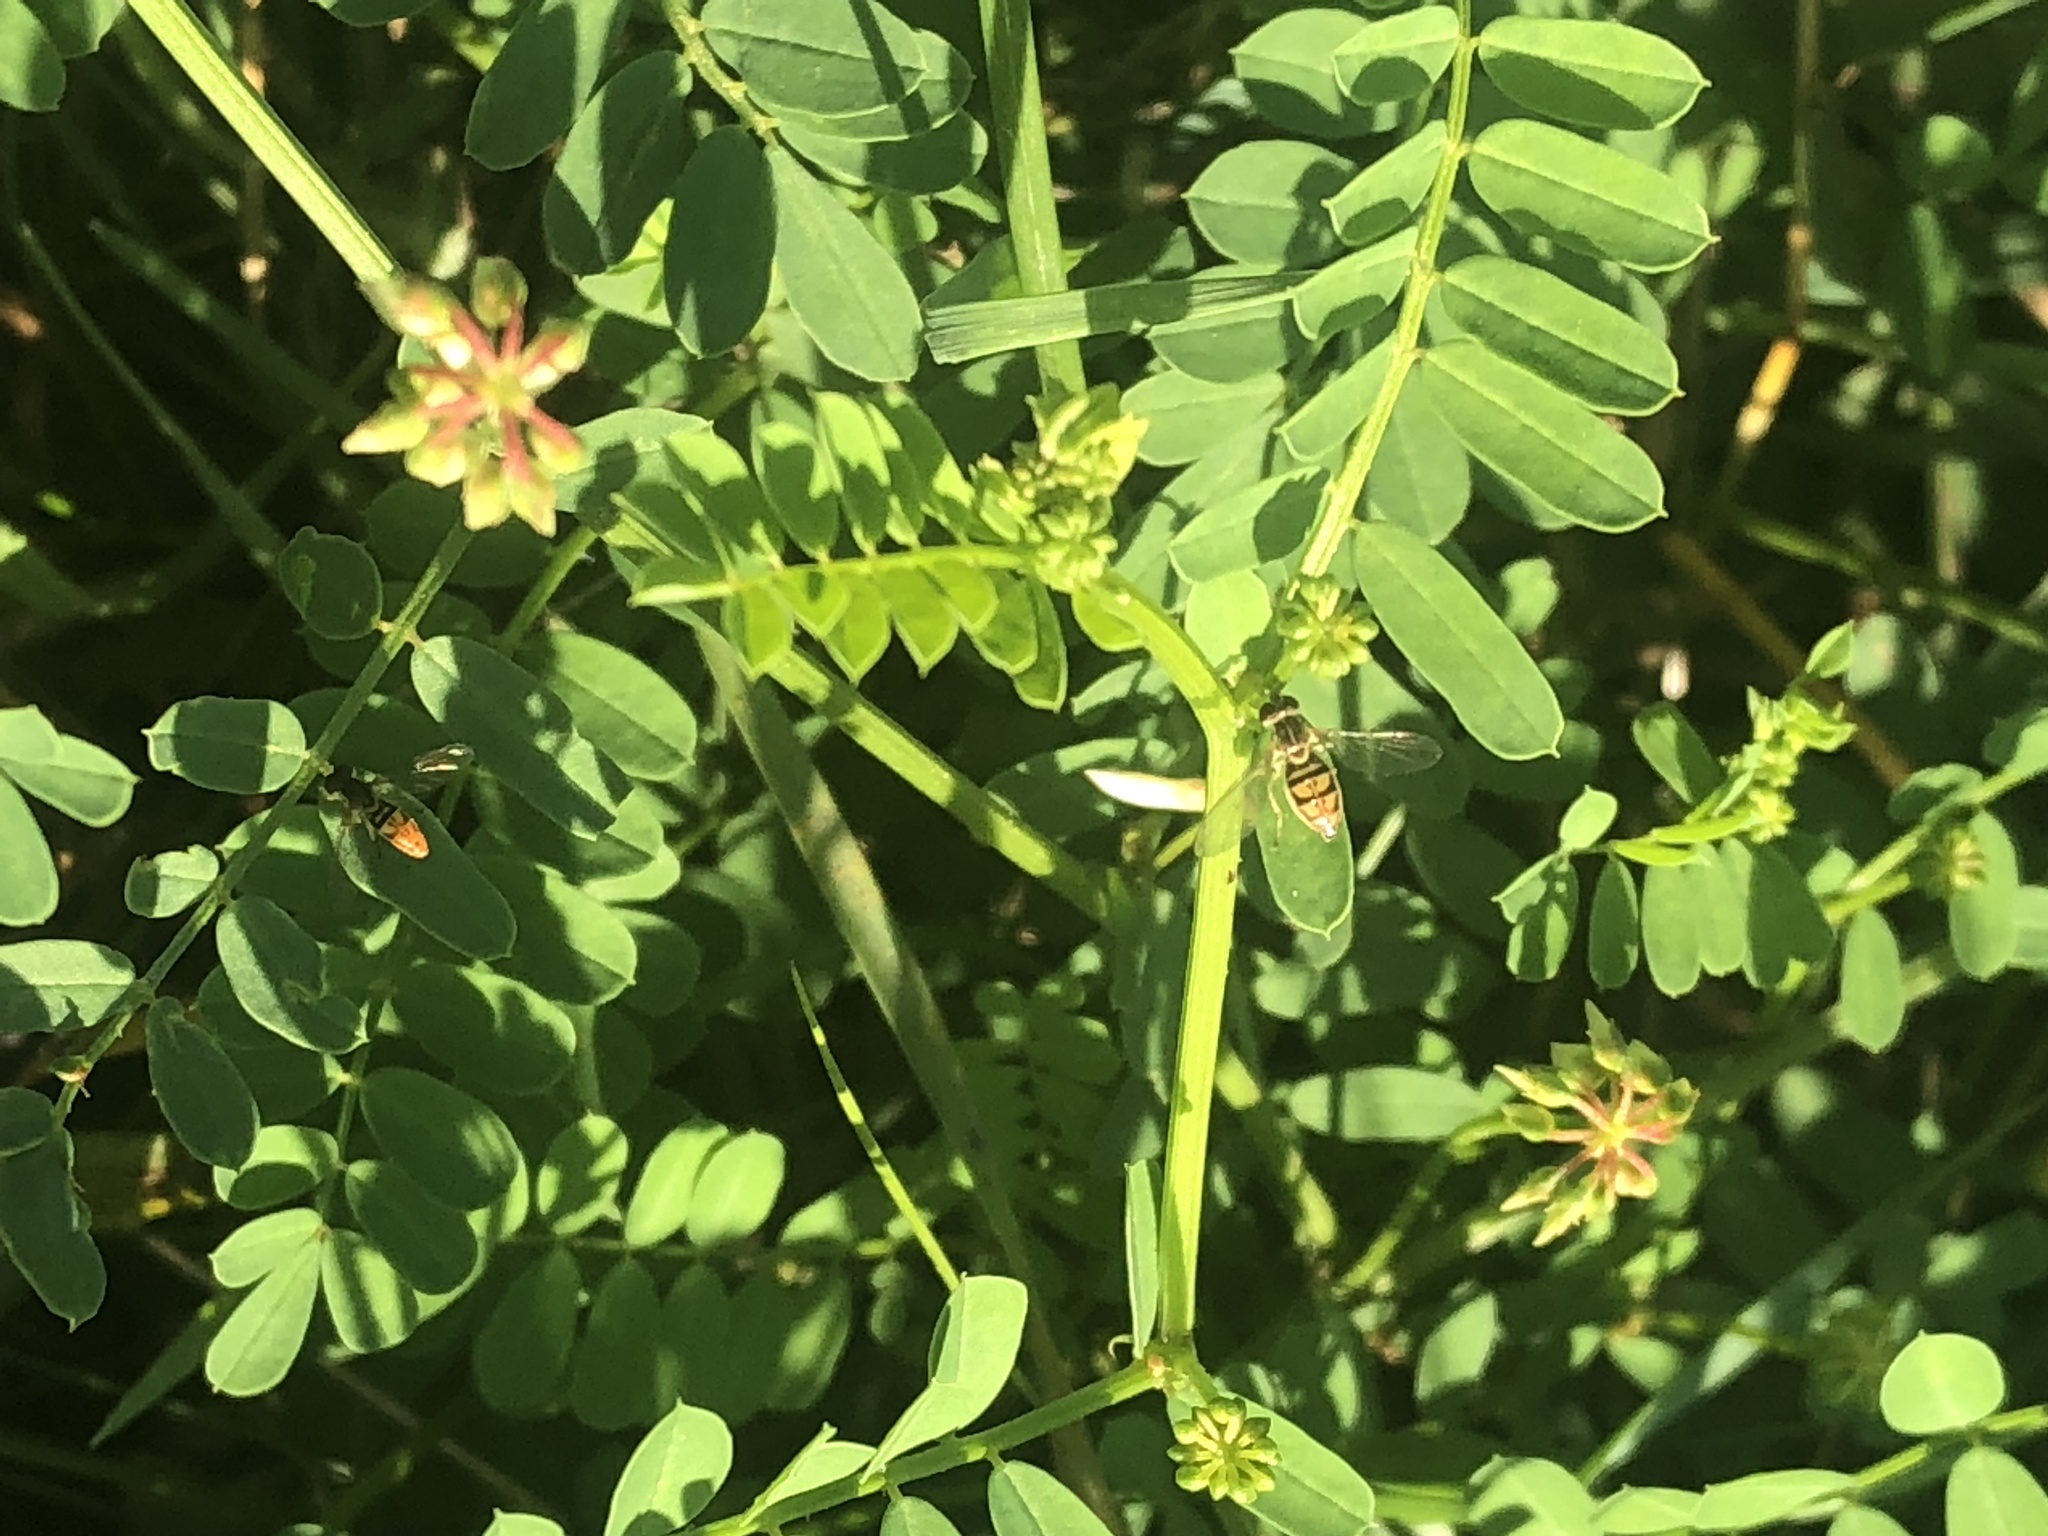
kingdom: Animalia
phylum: Arthropoda
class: Insecta
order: Diptera
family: Syrphidae
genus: Toxomerus
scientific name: Toxomerus marginatus
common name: Syrphid fly
